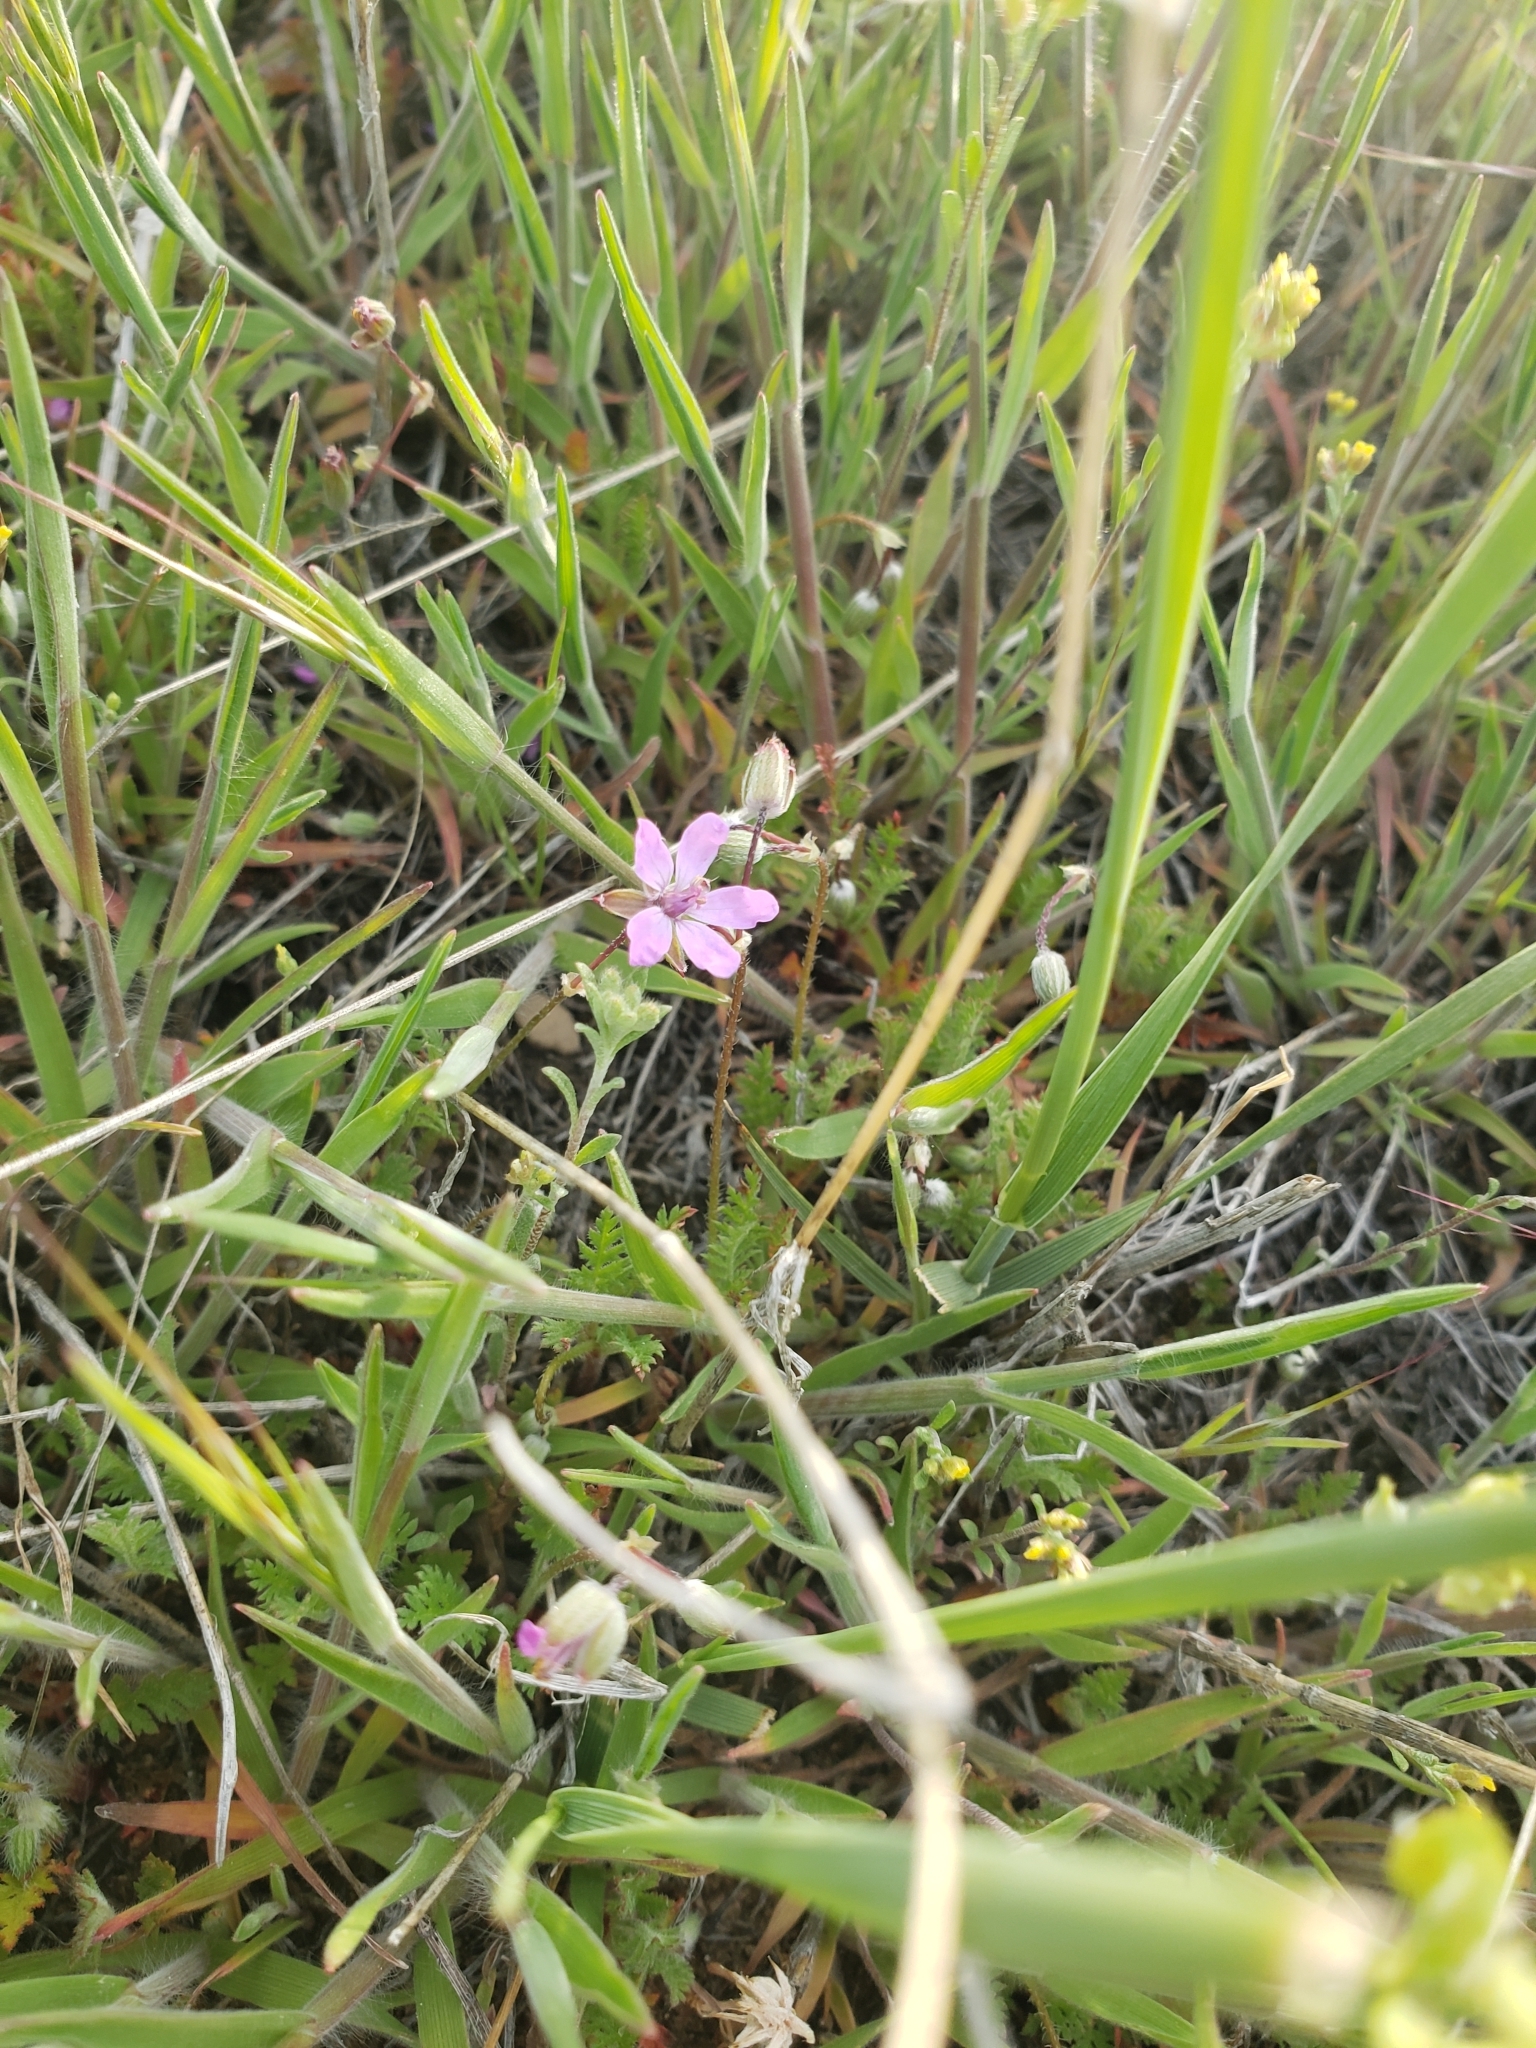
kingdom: Plantae
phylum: Tracheophyta
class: Magnoliopsida
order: Geraniales
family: Geraniaceae
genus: Erodium
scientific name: Erodium cicutarium
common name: Common stork's-bill
